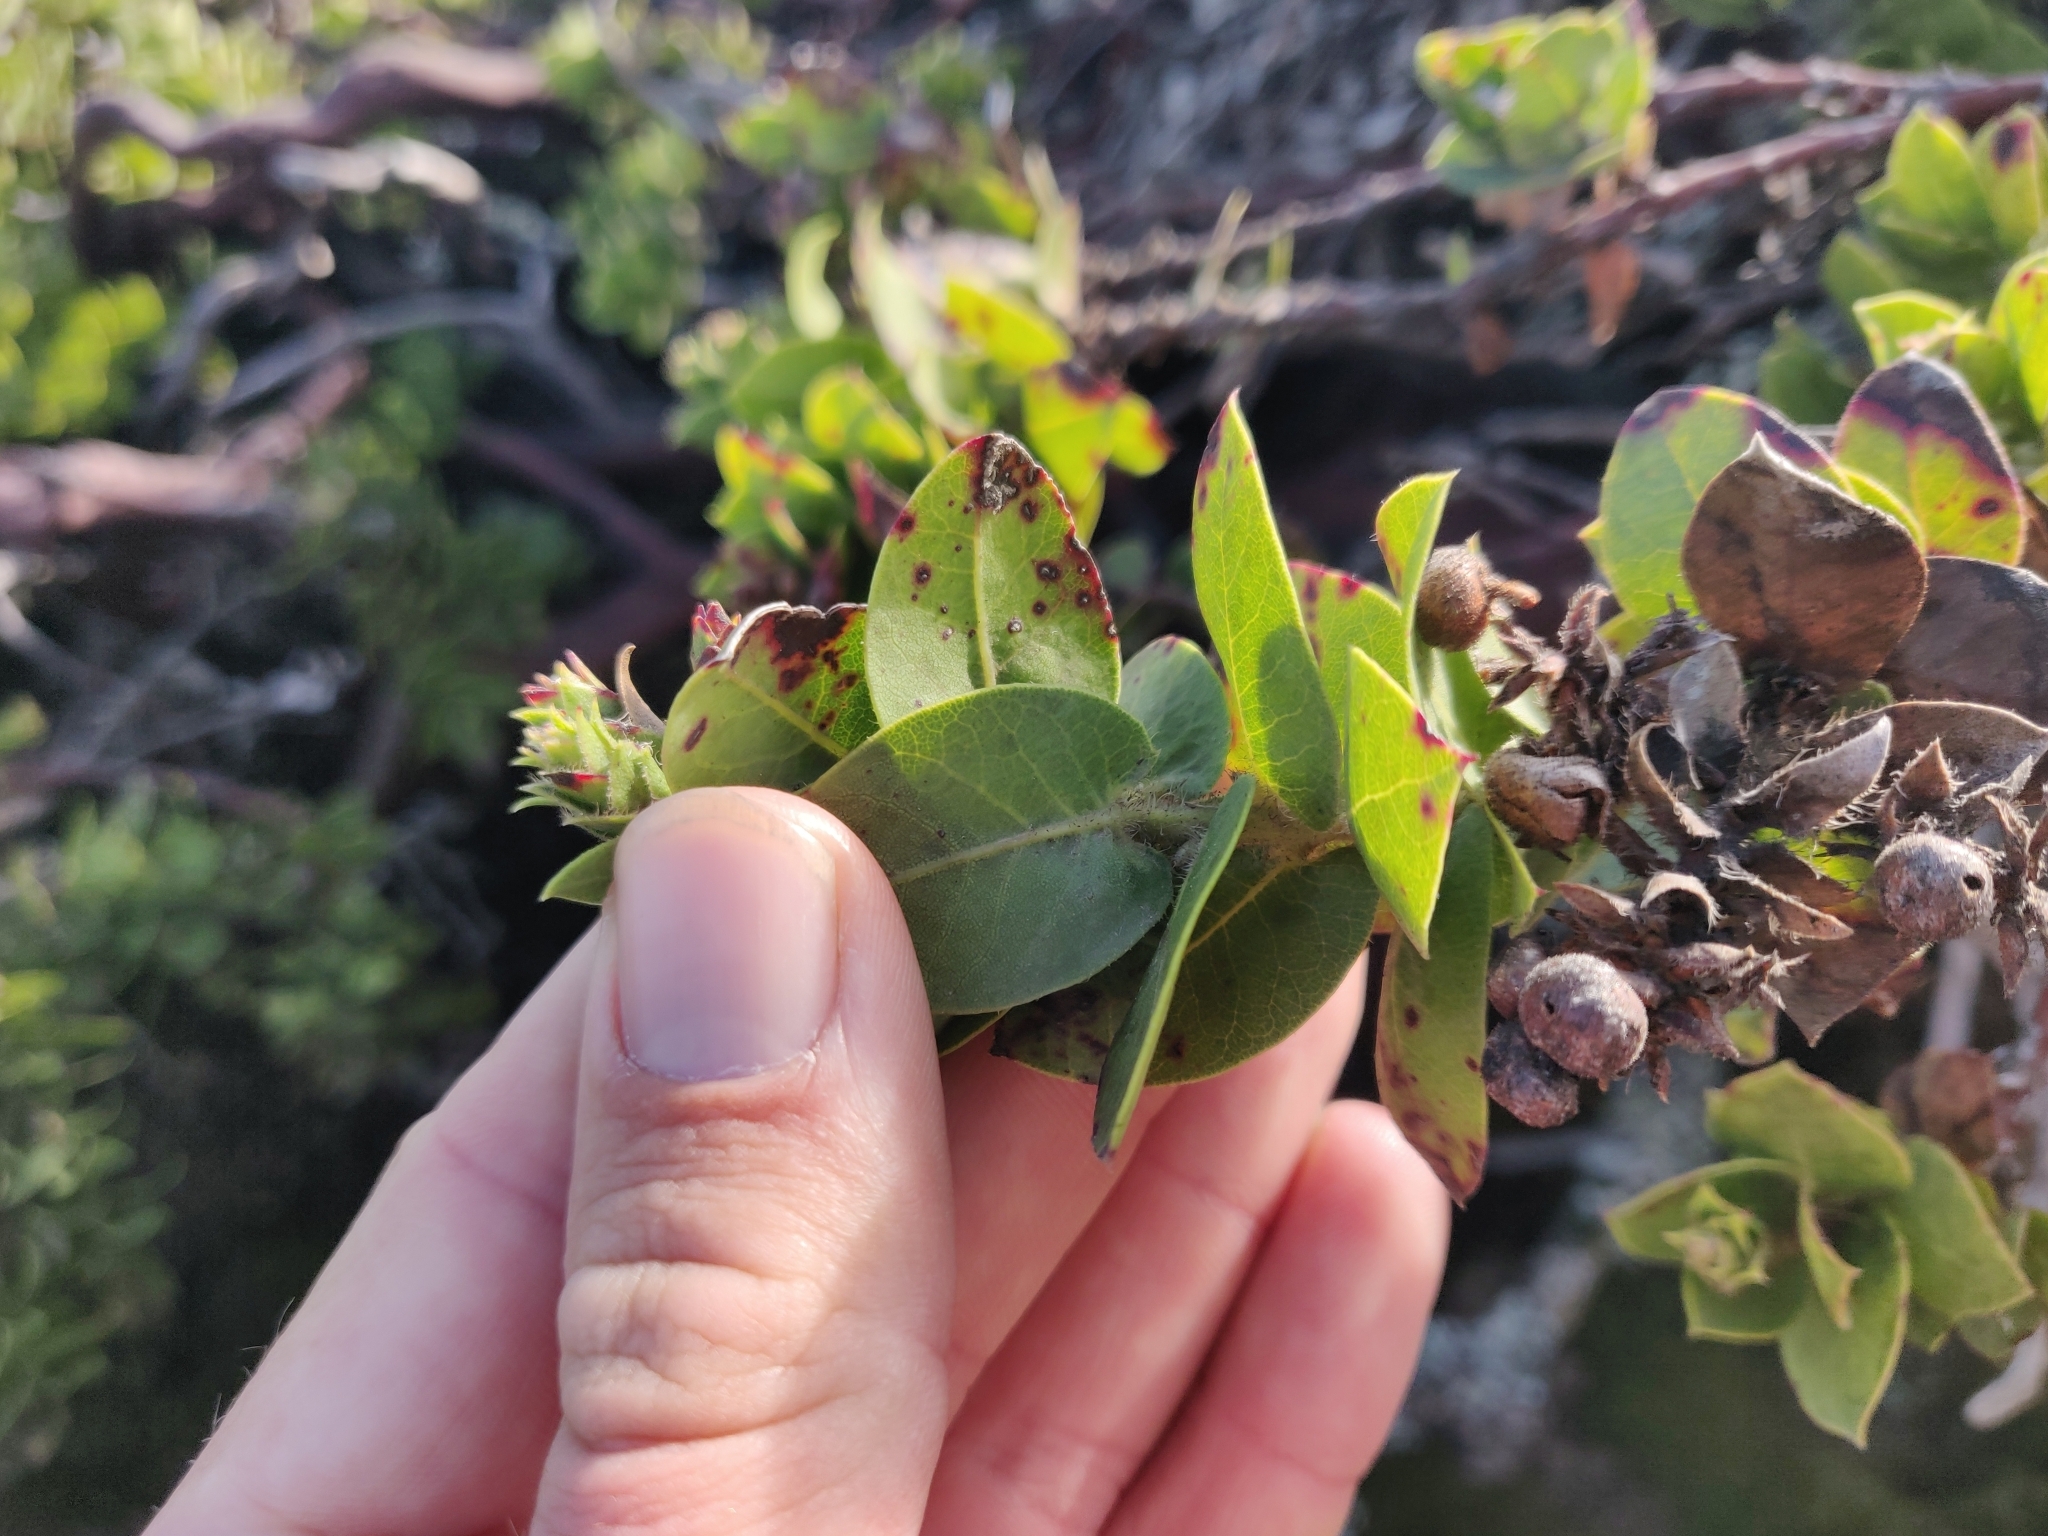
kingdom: Plantae
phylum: Tracheophyta
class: Magnoliopsida
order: Ericales
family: Ericaceae
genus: Arctostaphylos
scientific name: Arctostaphylos imbricata
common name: San bruno mountain manzanita
